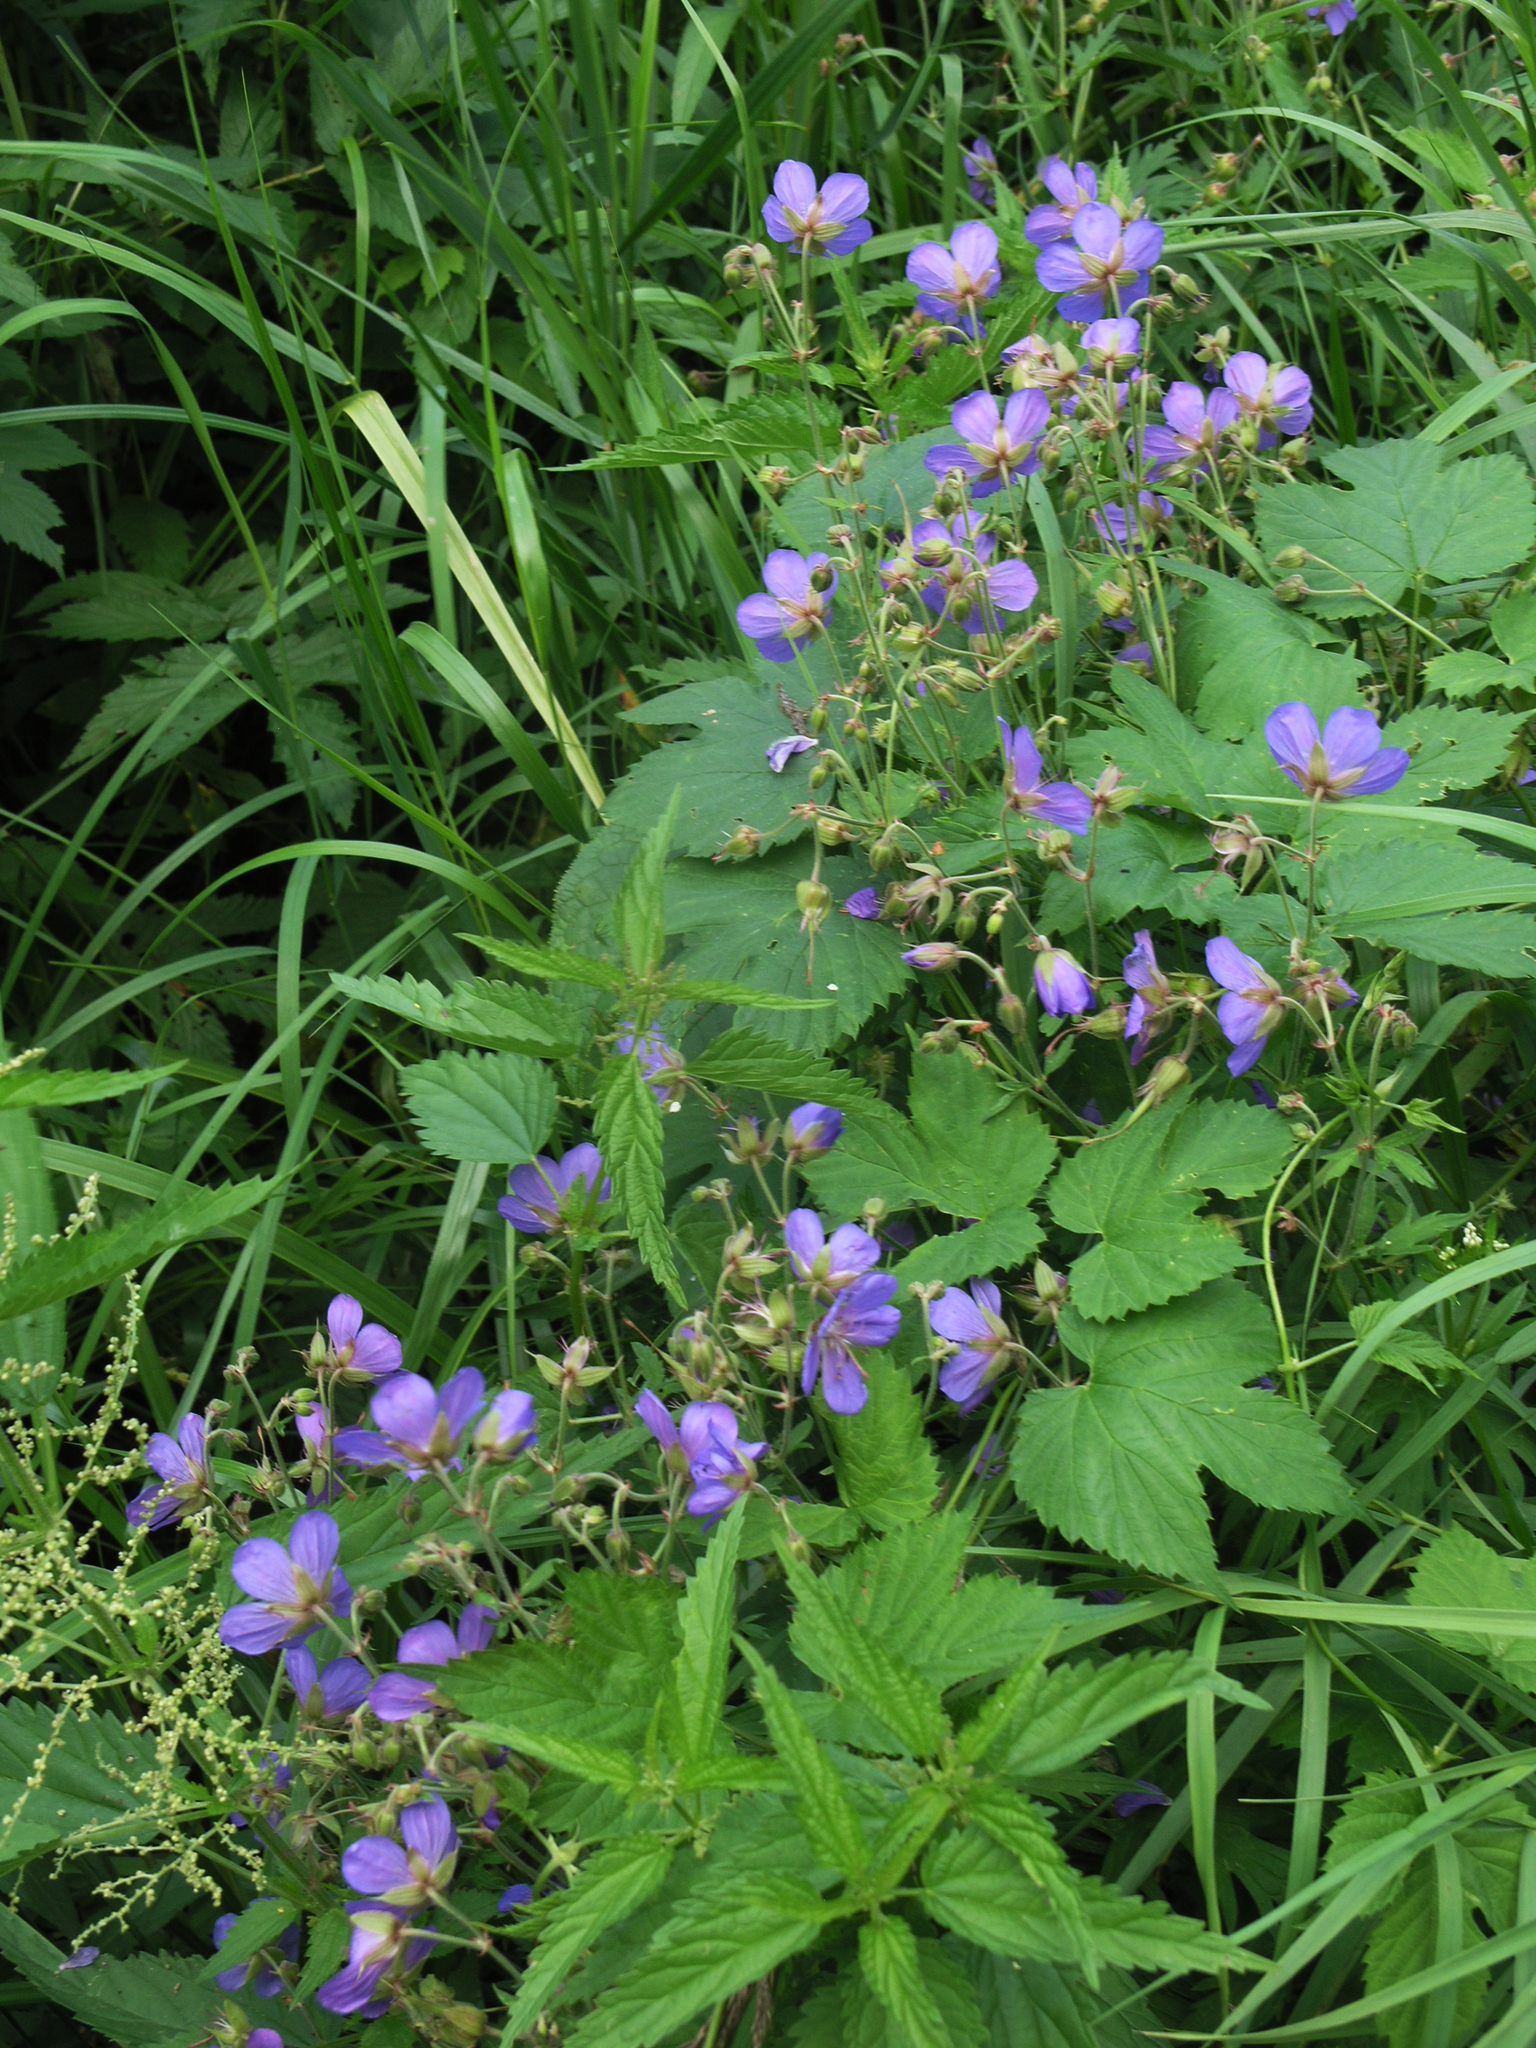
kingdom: Plantae
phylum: Tracheophyta
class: Magnoliopsida
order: Geraniales
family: Geraniaceae
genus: Geranium
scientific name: Geranium pratense
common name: Meadow crane's-bill
